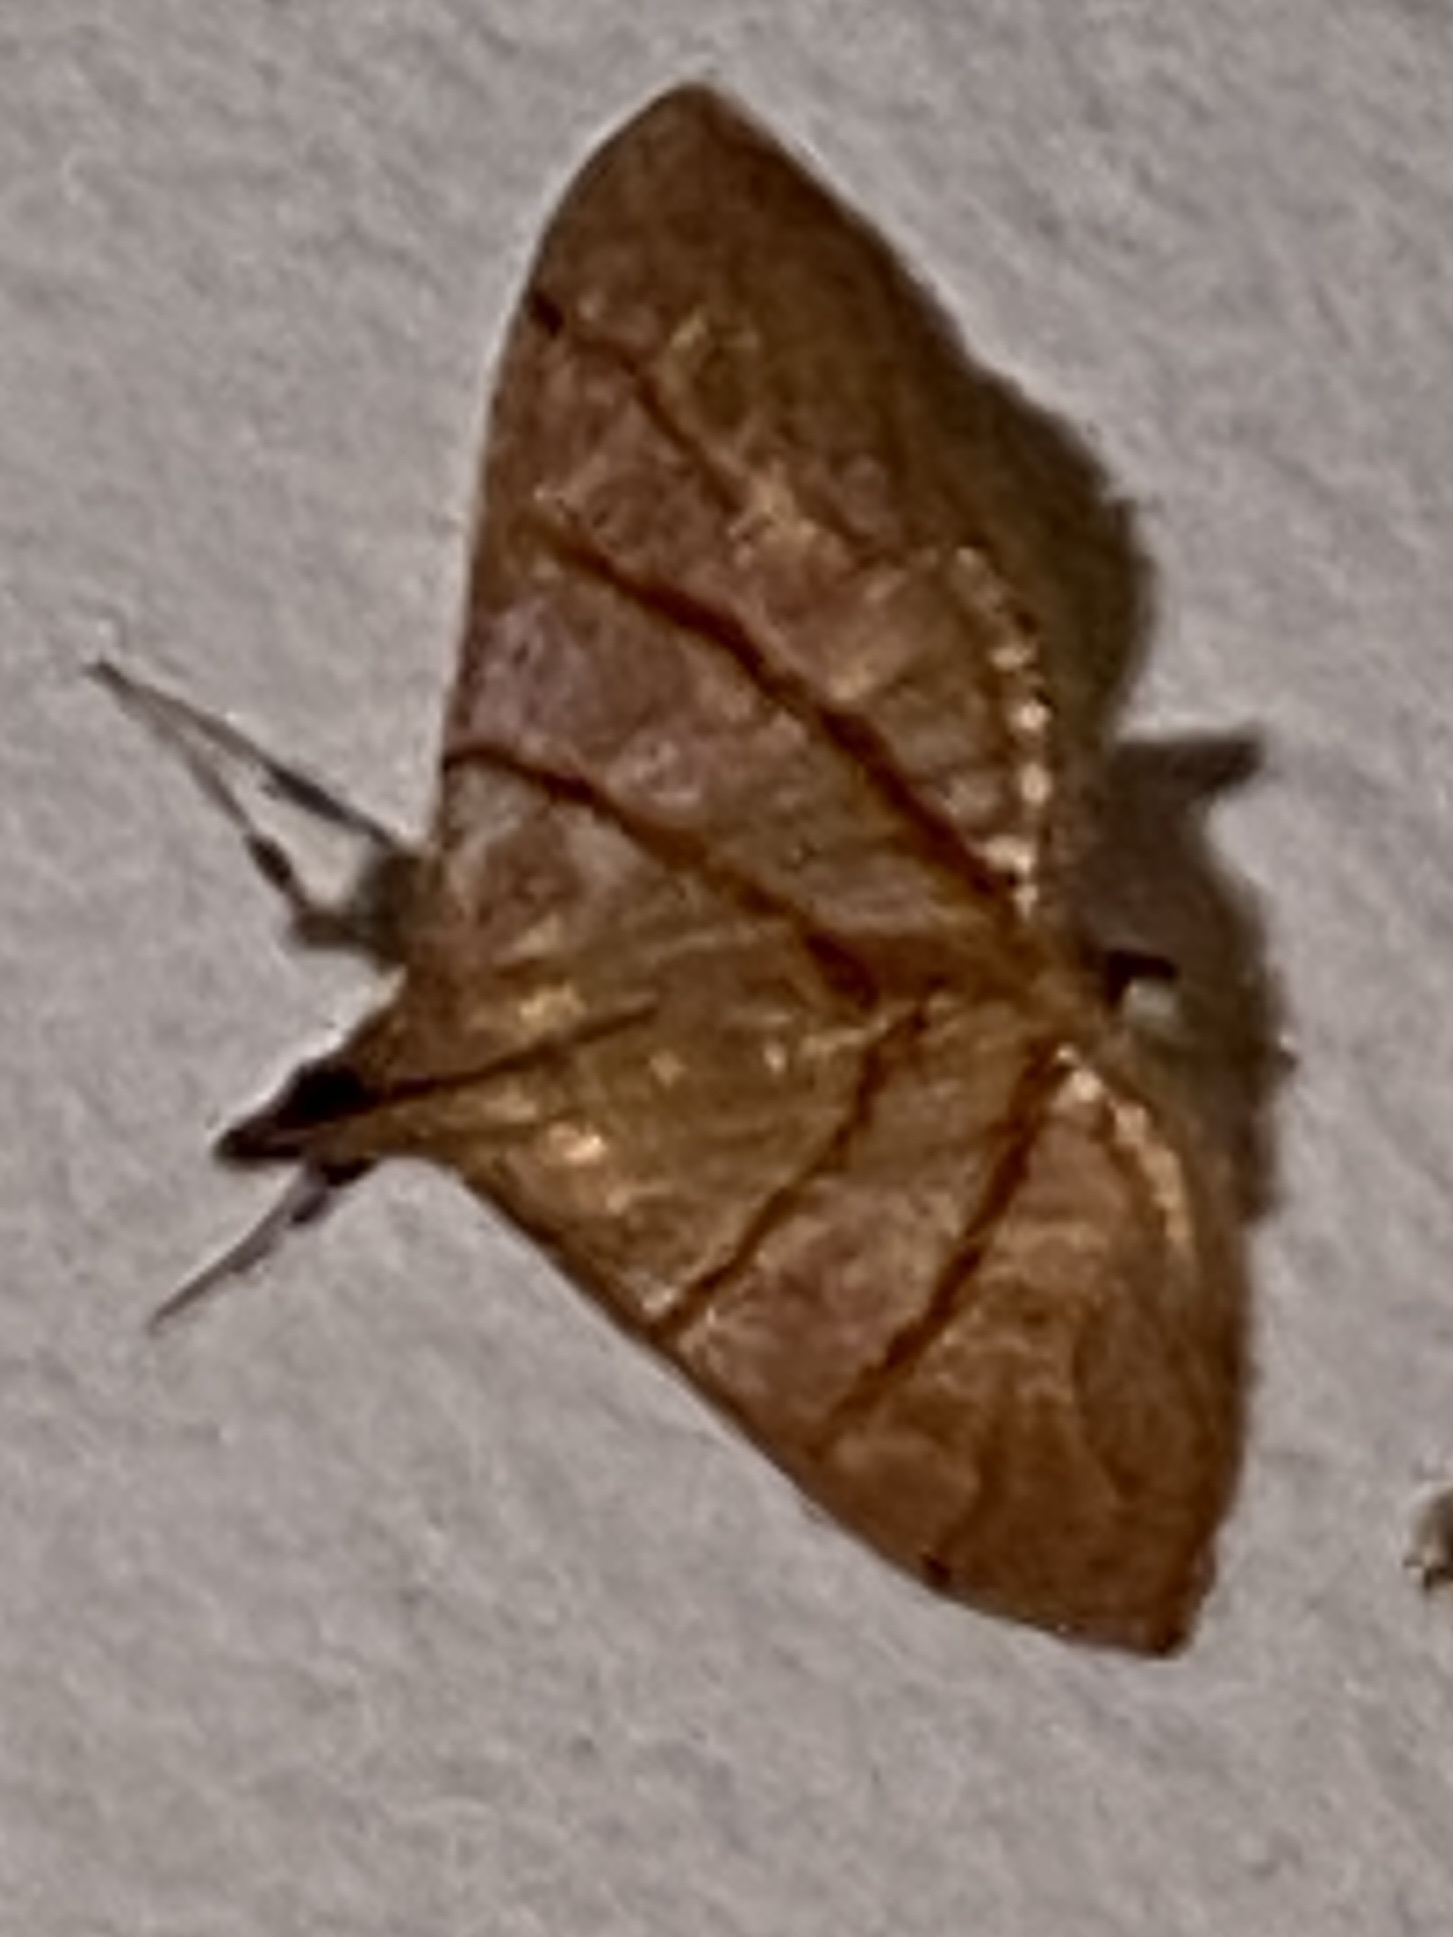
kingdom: Animalia
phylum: Arthropoda
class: Insecta
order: Lepidoptera
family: Crambidae
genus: Pagyda
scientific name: Pagyda salvalis
